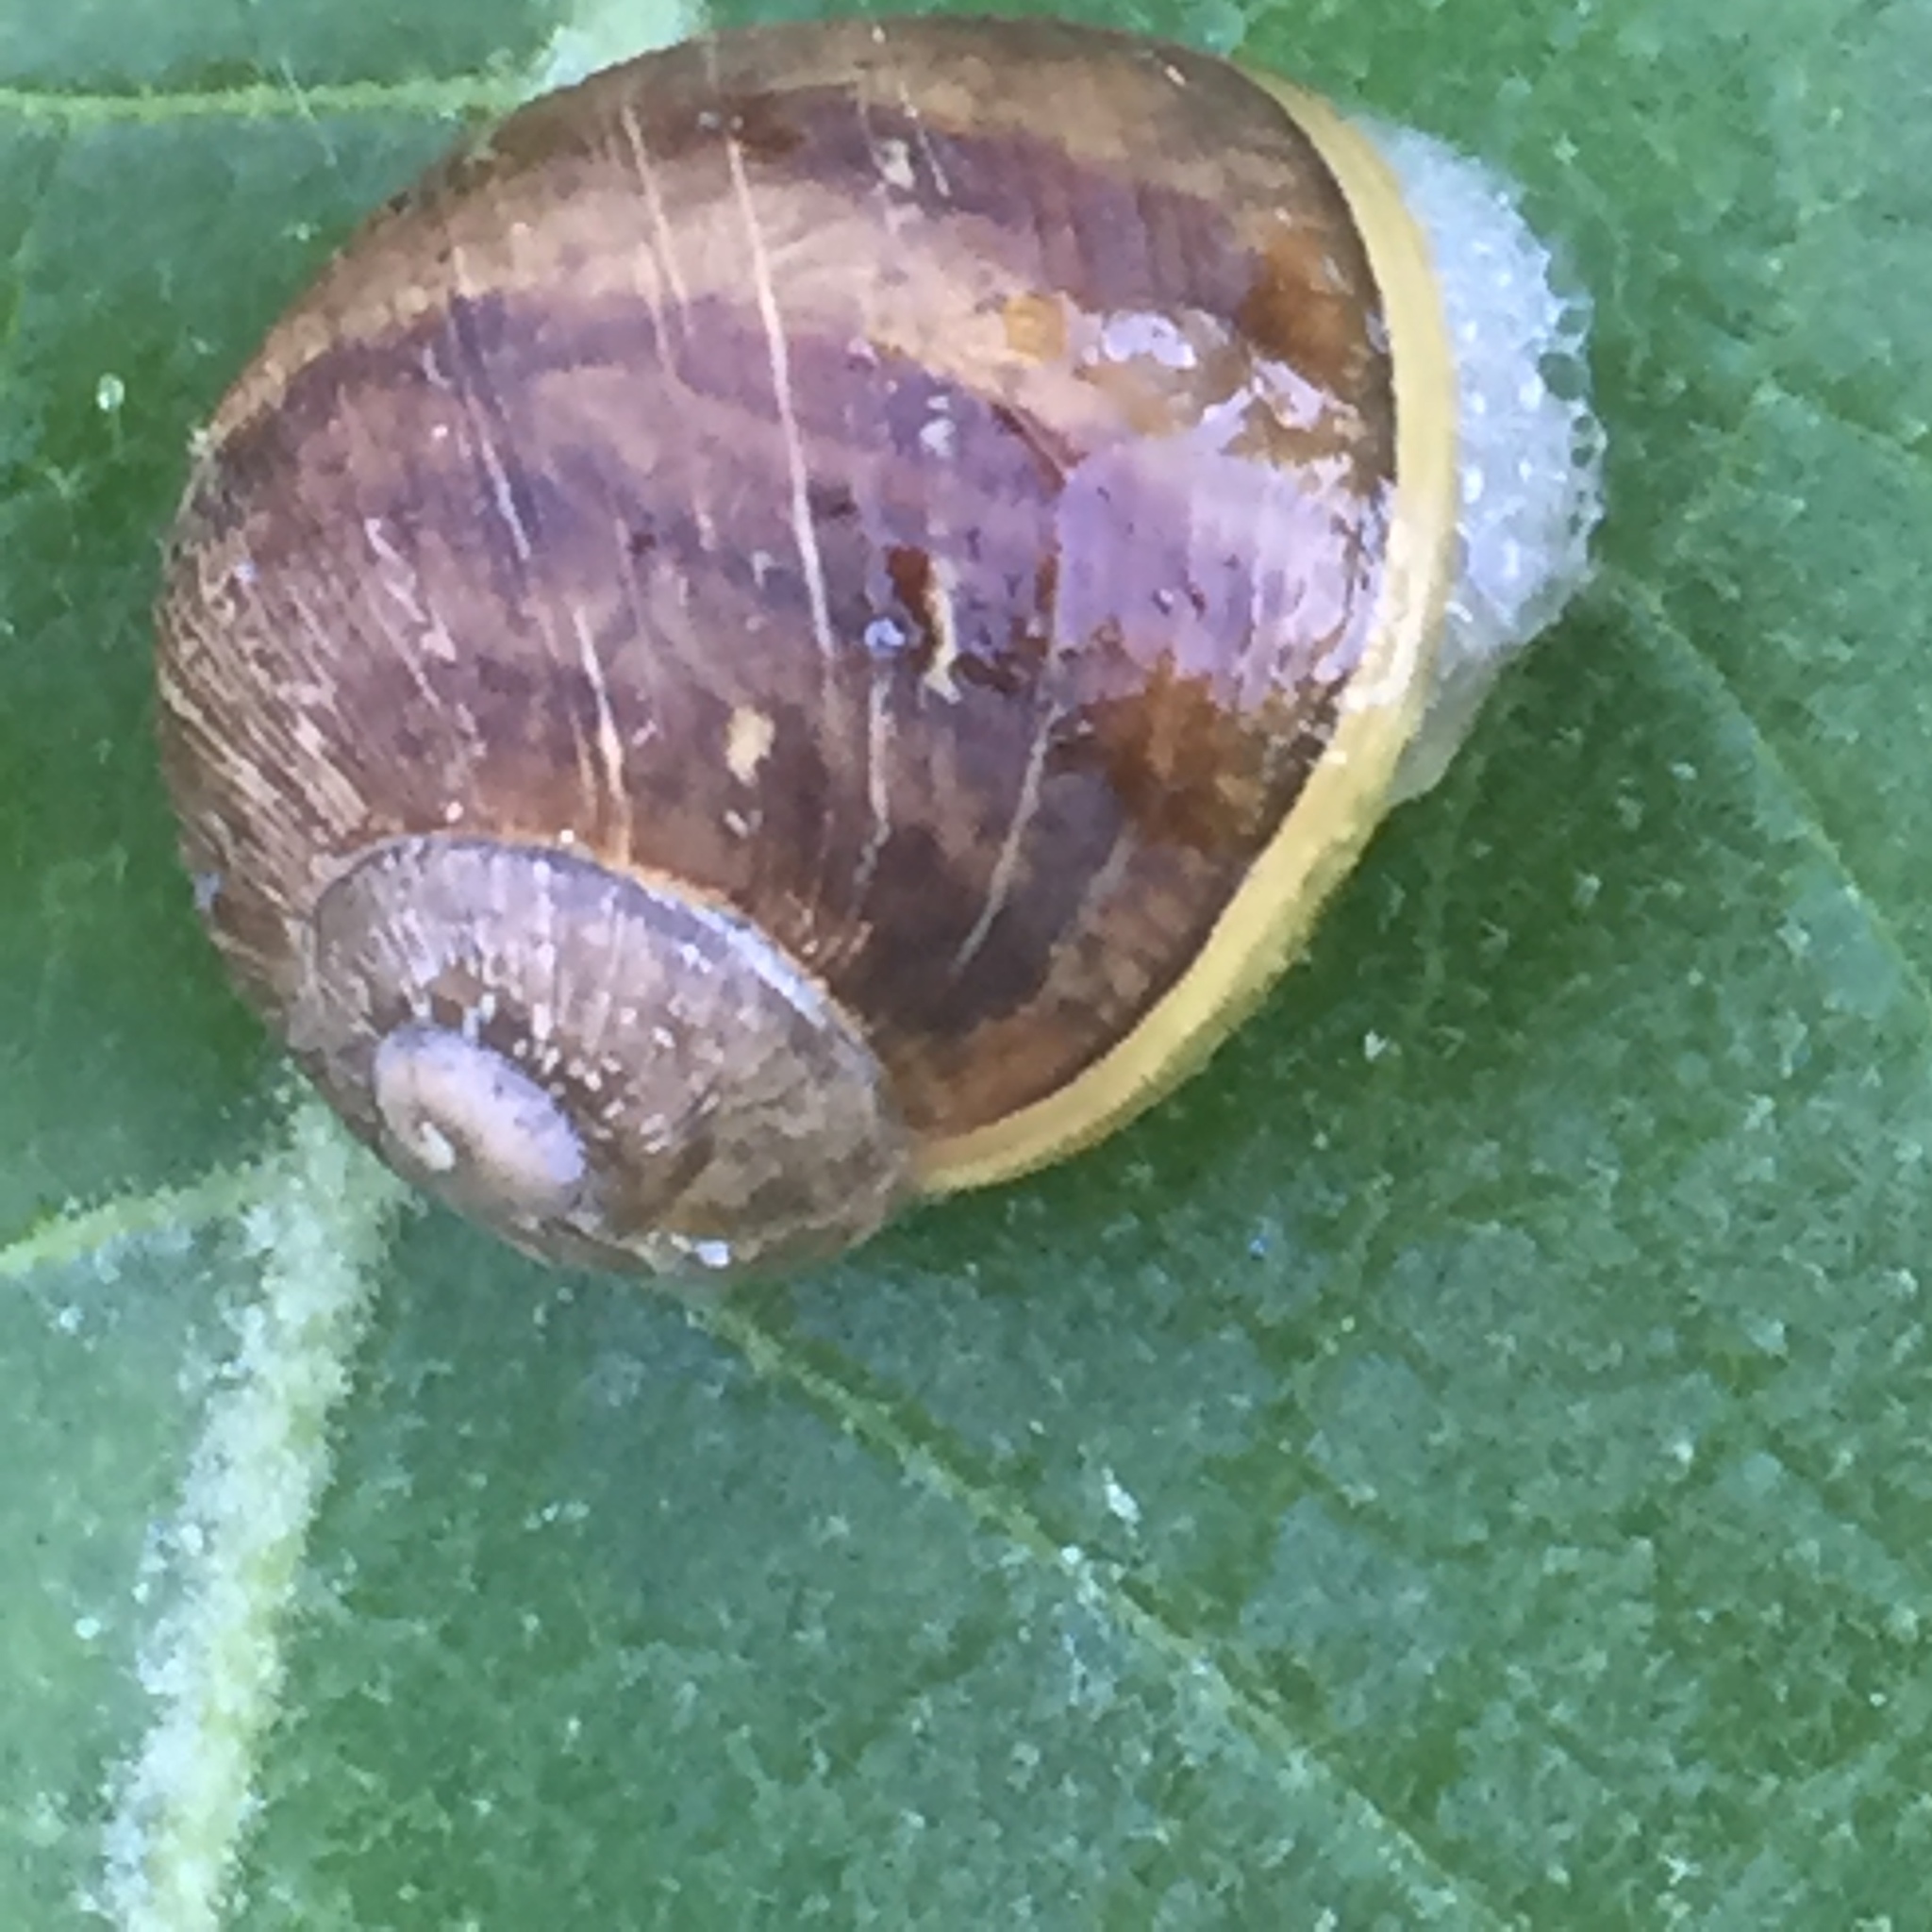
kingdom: Animalia
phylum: Mollusca
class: Gastropoda
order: Stylommatophora
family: Helicidae
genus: Cornu
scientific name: Cornu aspersum
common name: Brown garden snail
